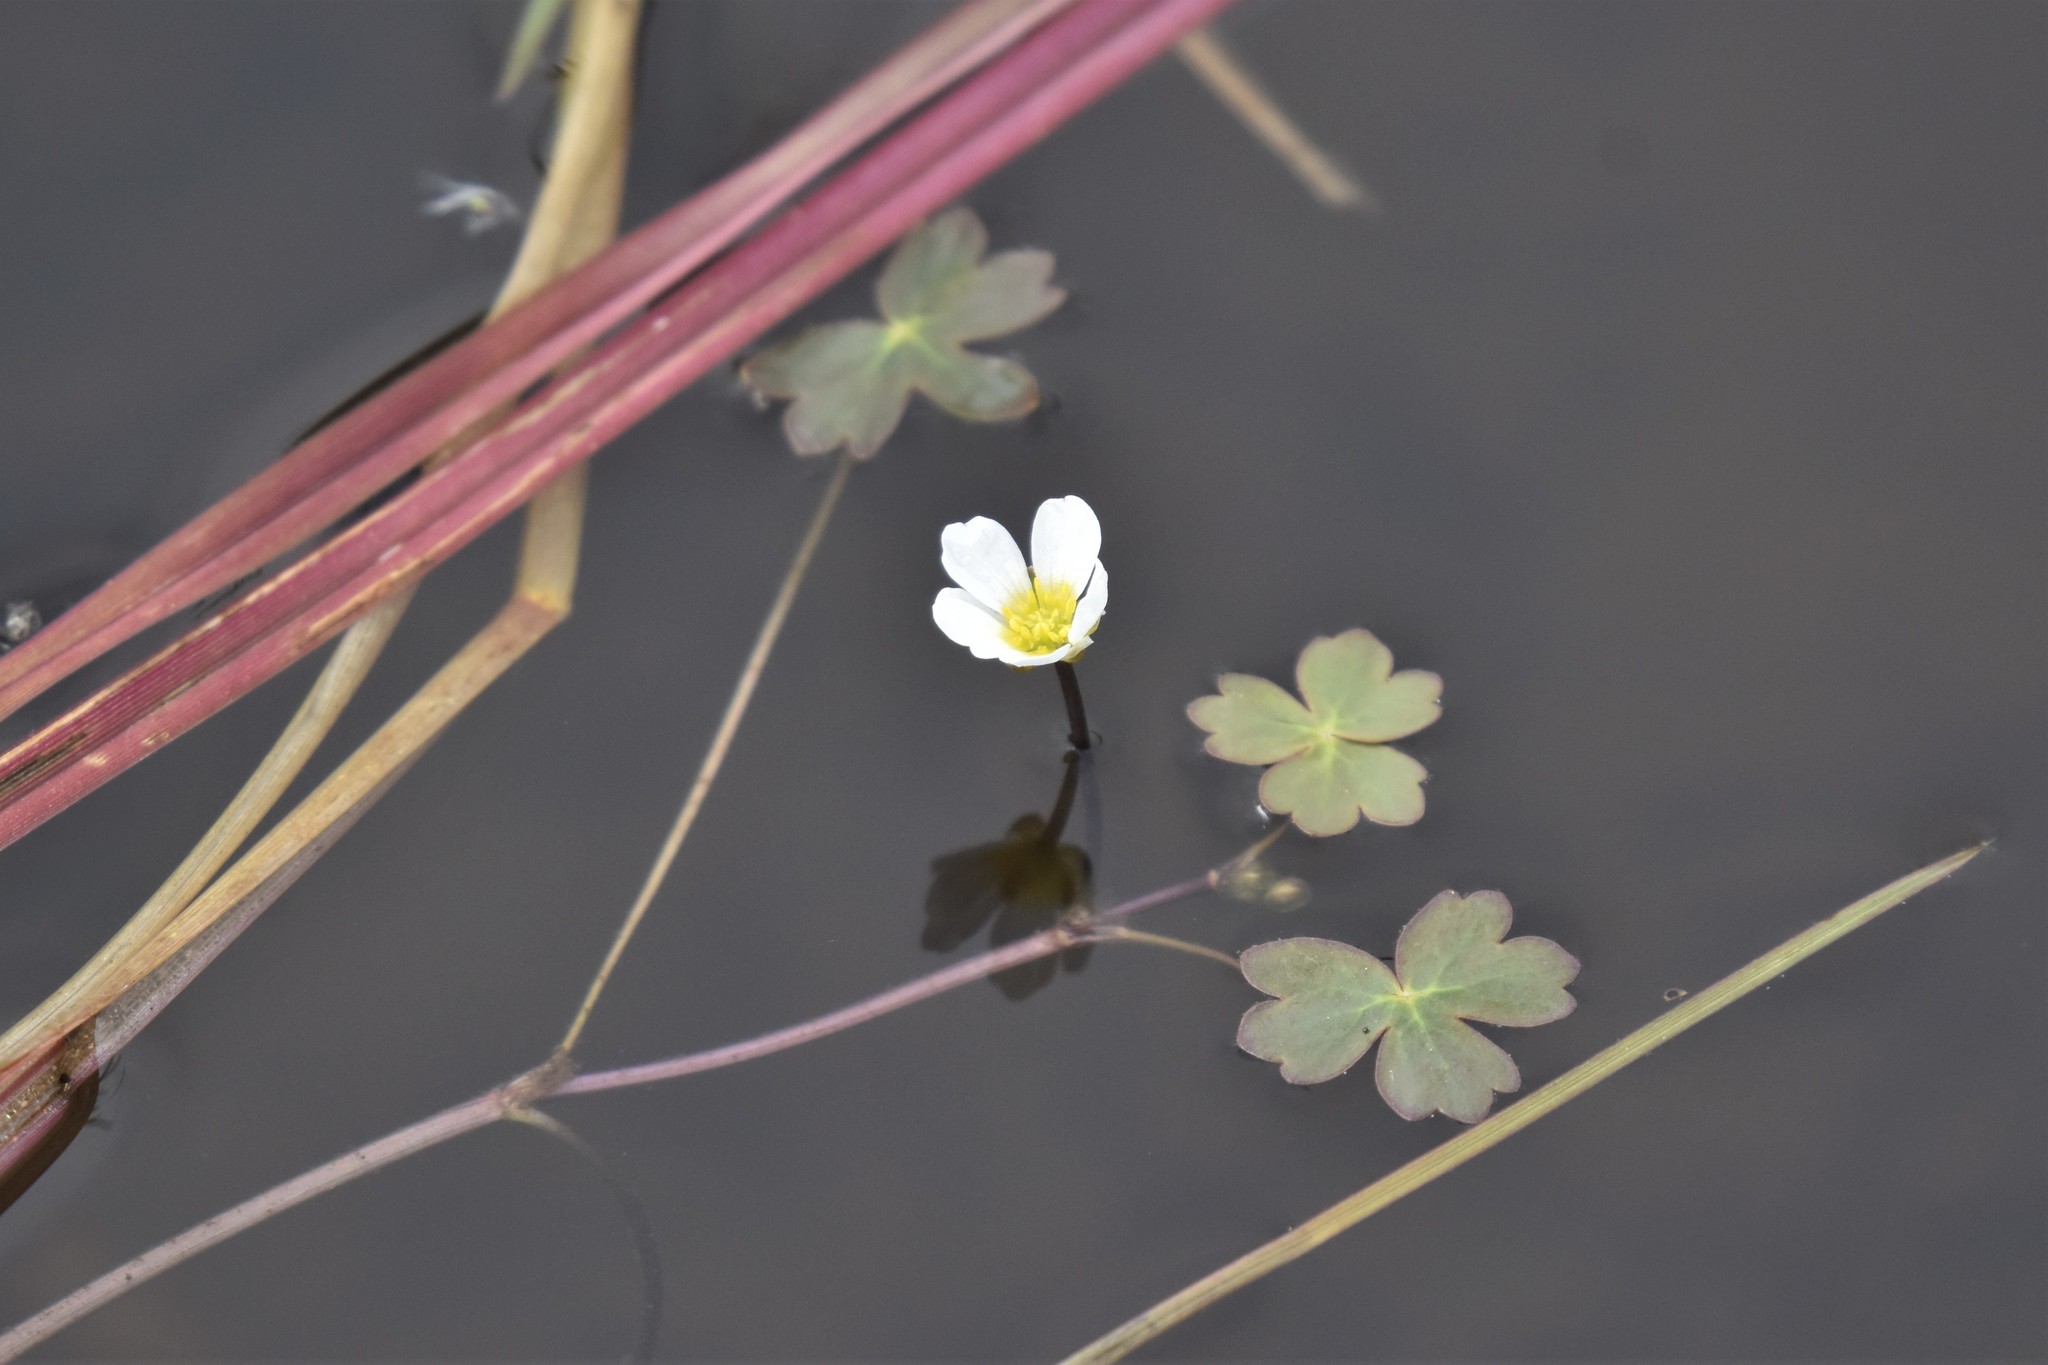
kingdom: Plantae
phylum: Tracheophyta
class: Magnoliopsida
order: Ranunculales
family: Ranunculaceae
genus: Ranunculus
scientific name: Ranunculus aquatilis
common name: Common water-crowfoot
